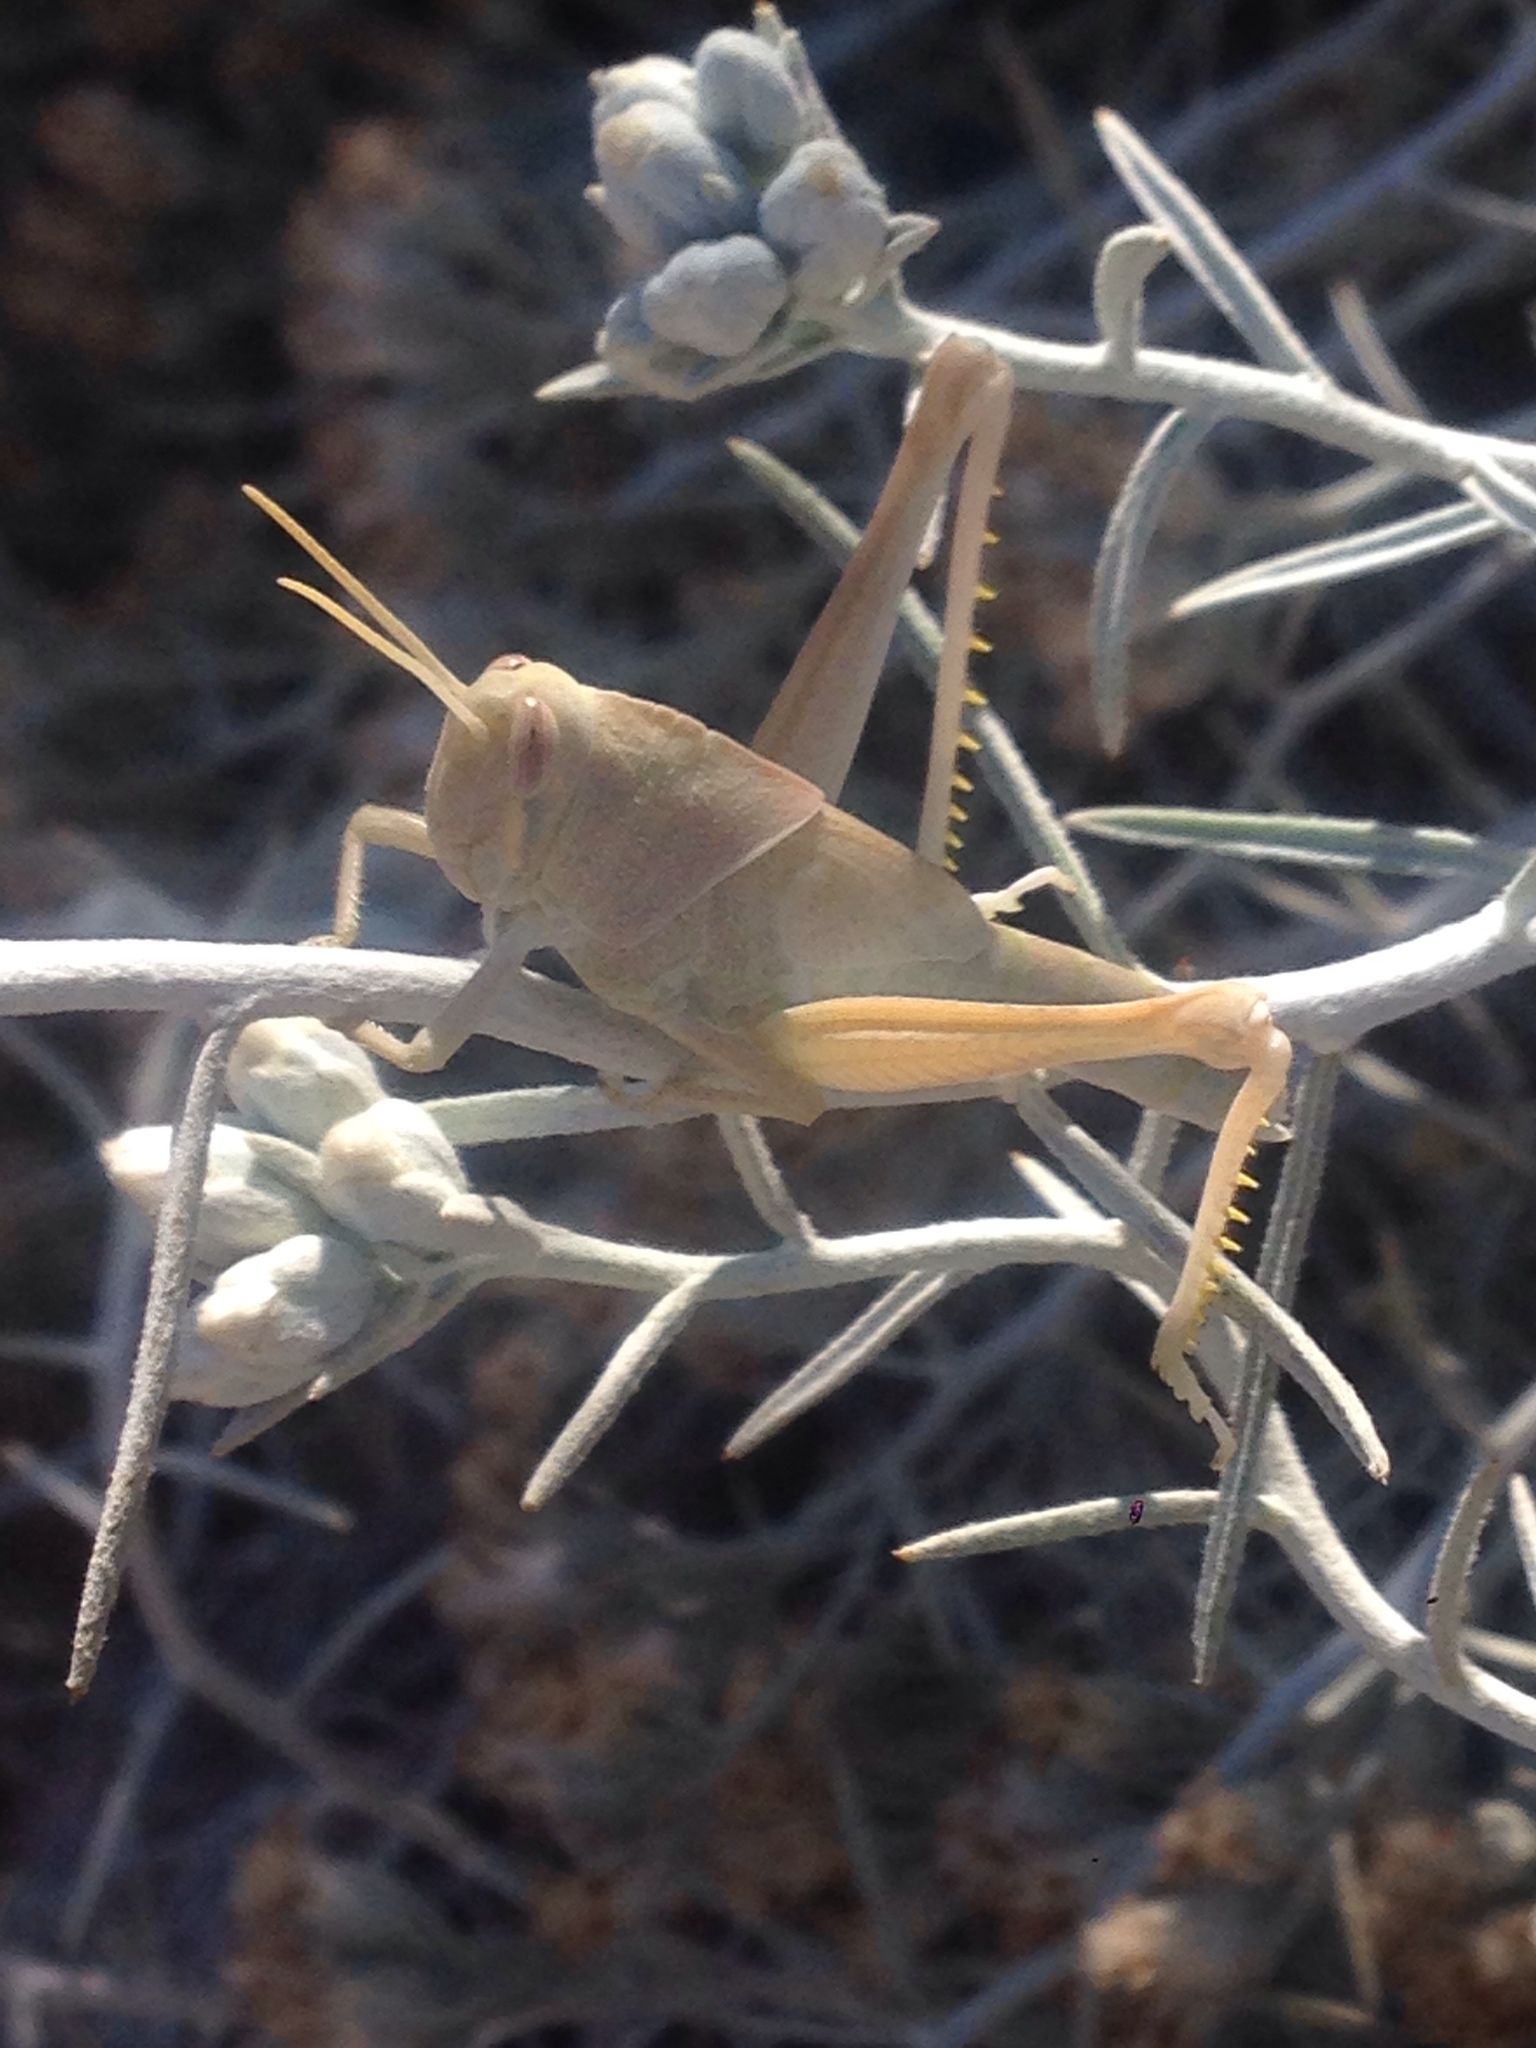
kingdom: Animalia
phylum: Arthropoda
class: Insecta
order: Orthoptera
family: Acrididae
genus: Schistocerca
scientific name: Schistocerca nitens
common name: Vagrant grasshopper
